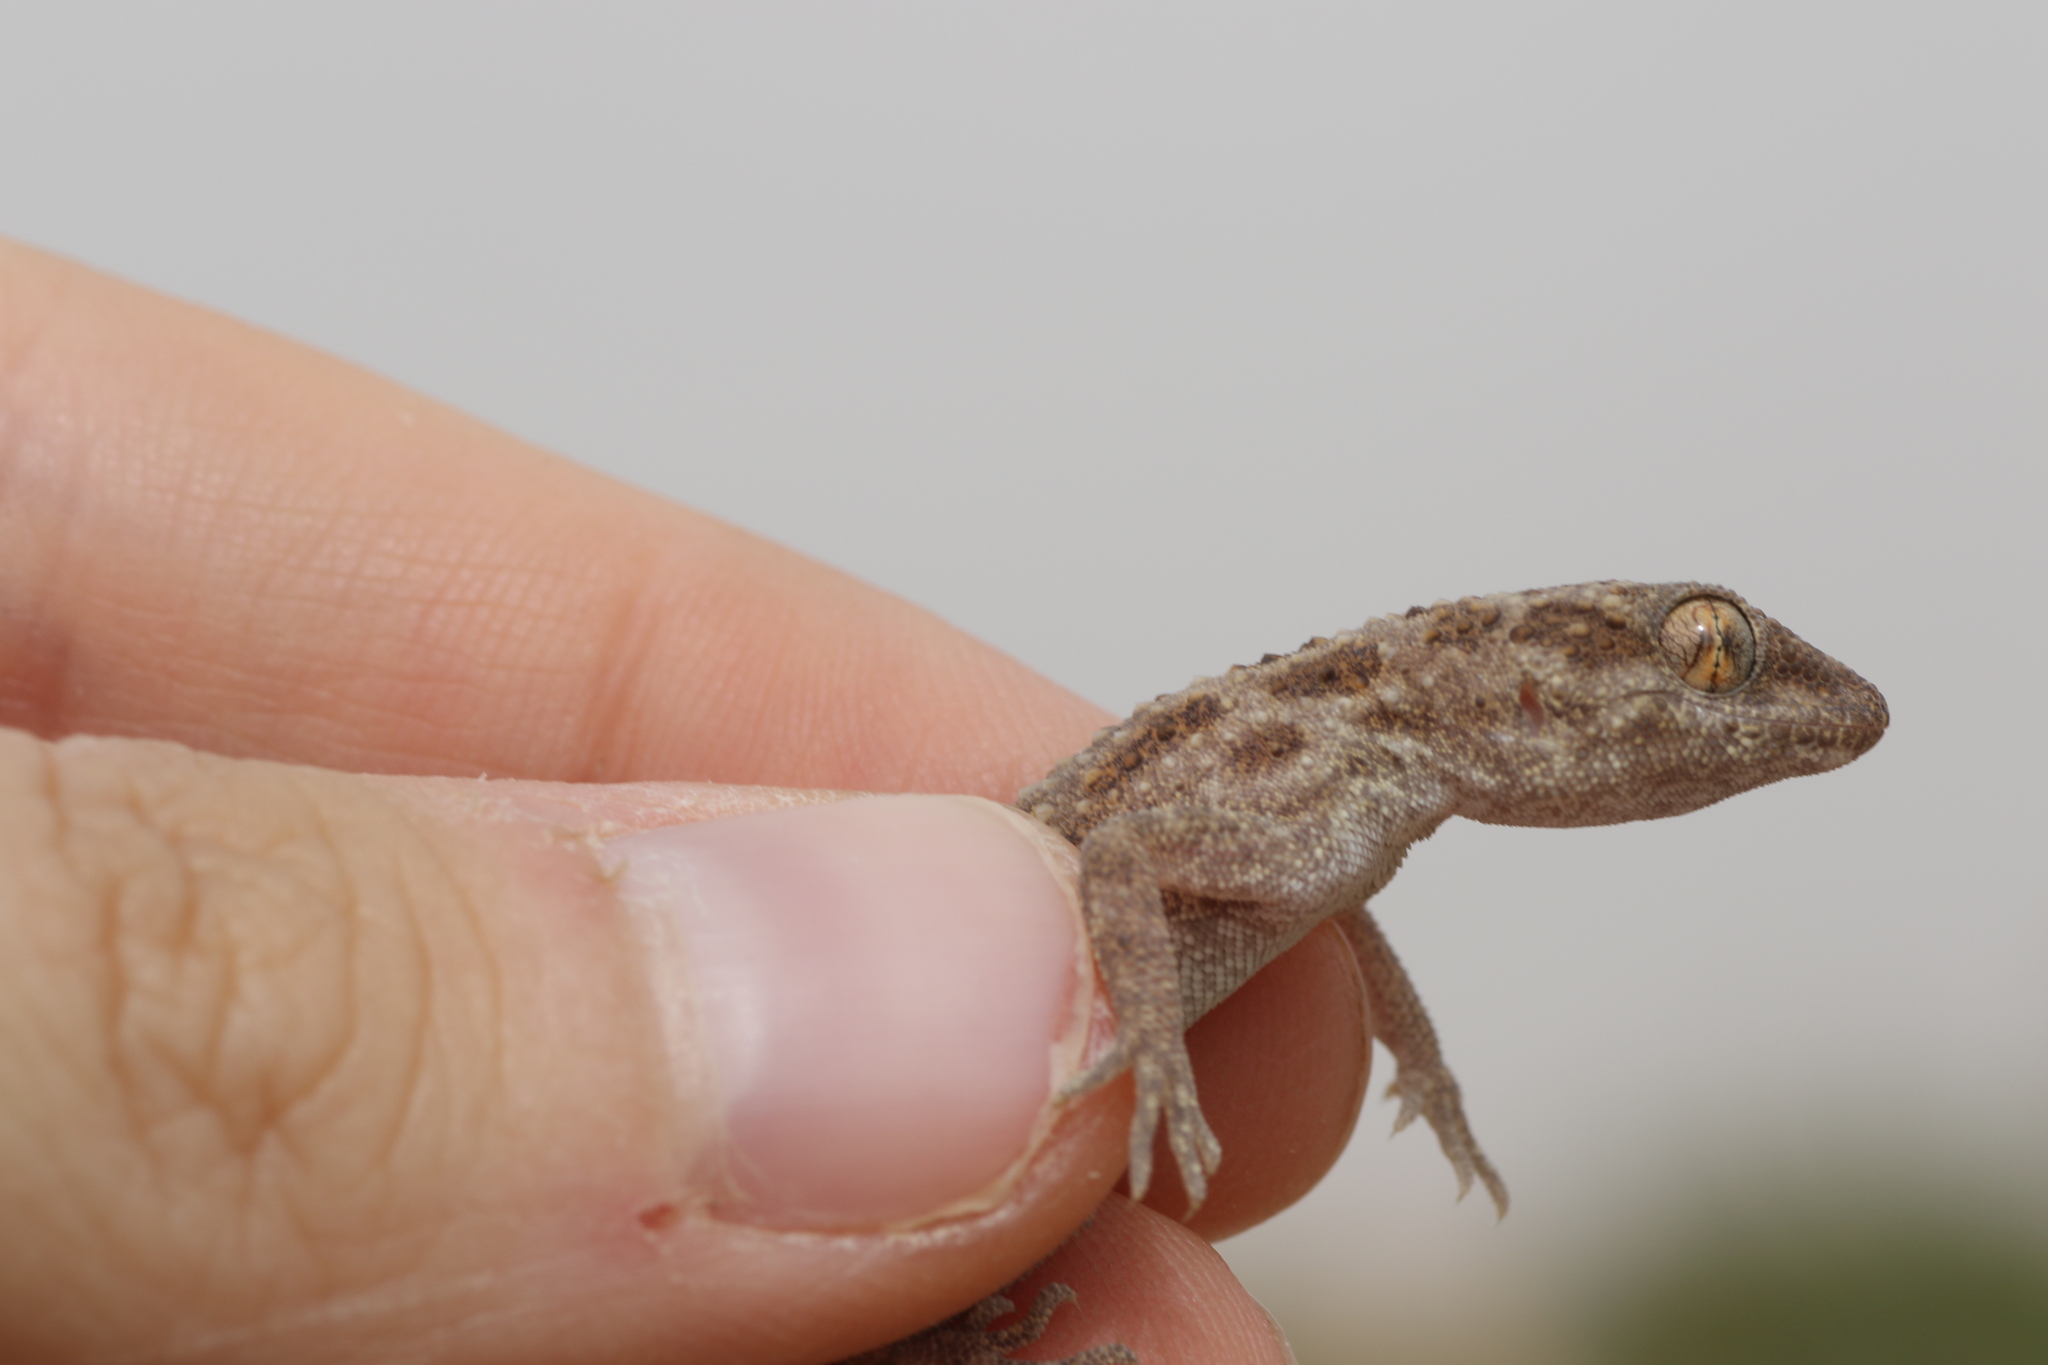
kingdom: Animalia
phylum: Chordata
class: Squamata
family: Gekkonidae
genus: Bunopus
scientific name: Bunopus tuberculatus
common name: Southern tuberculated gecko
